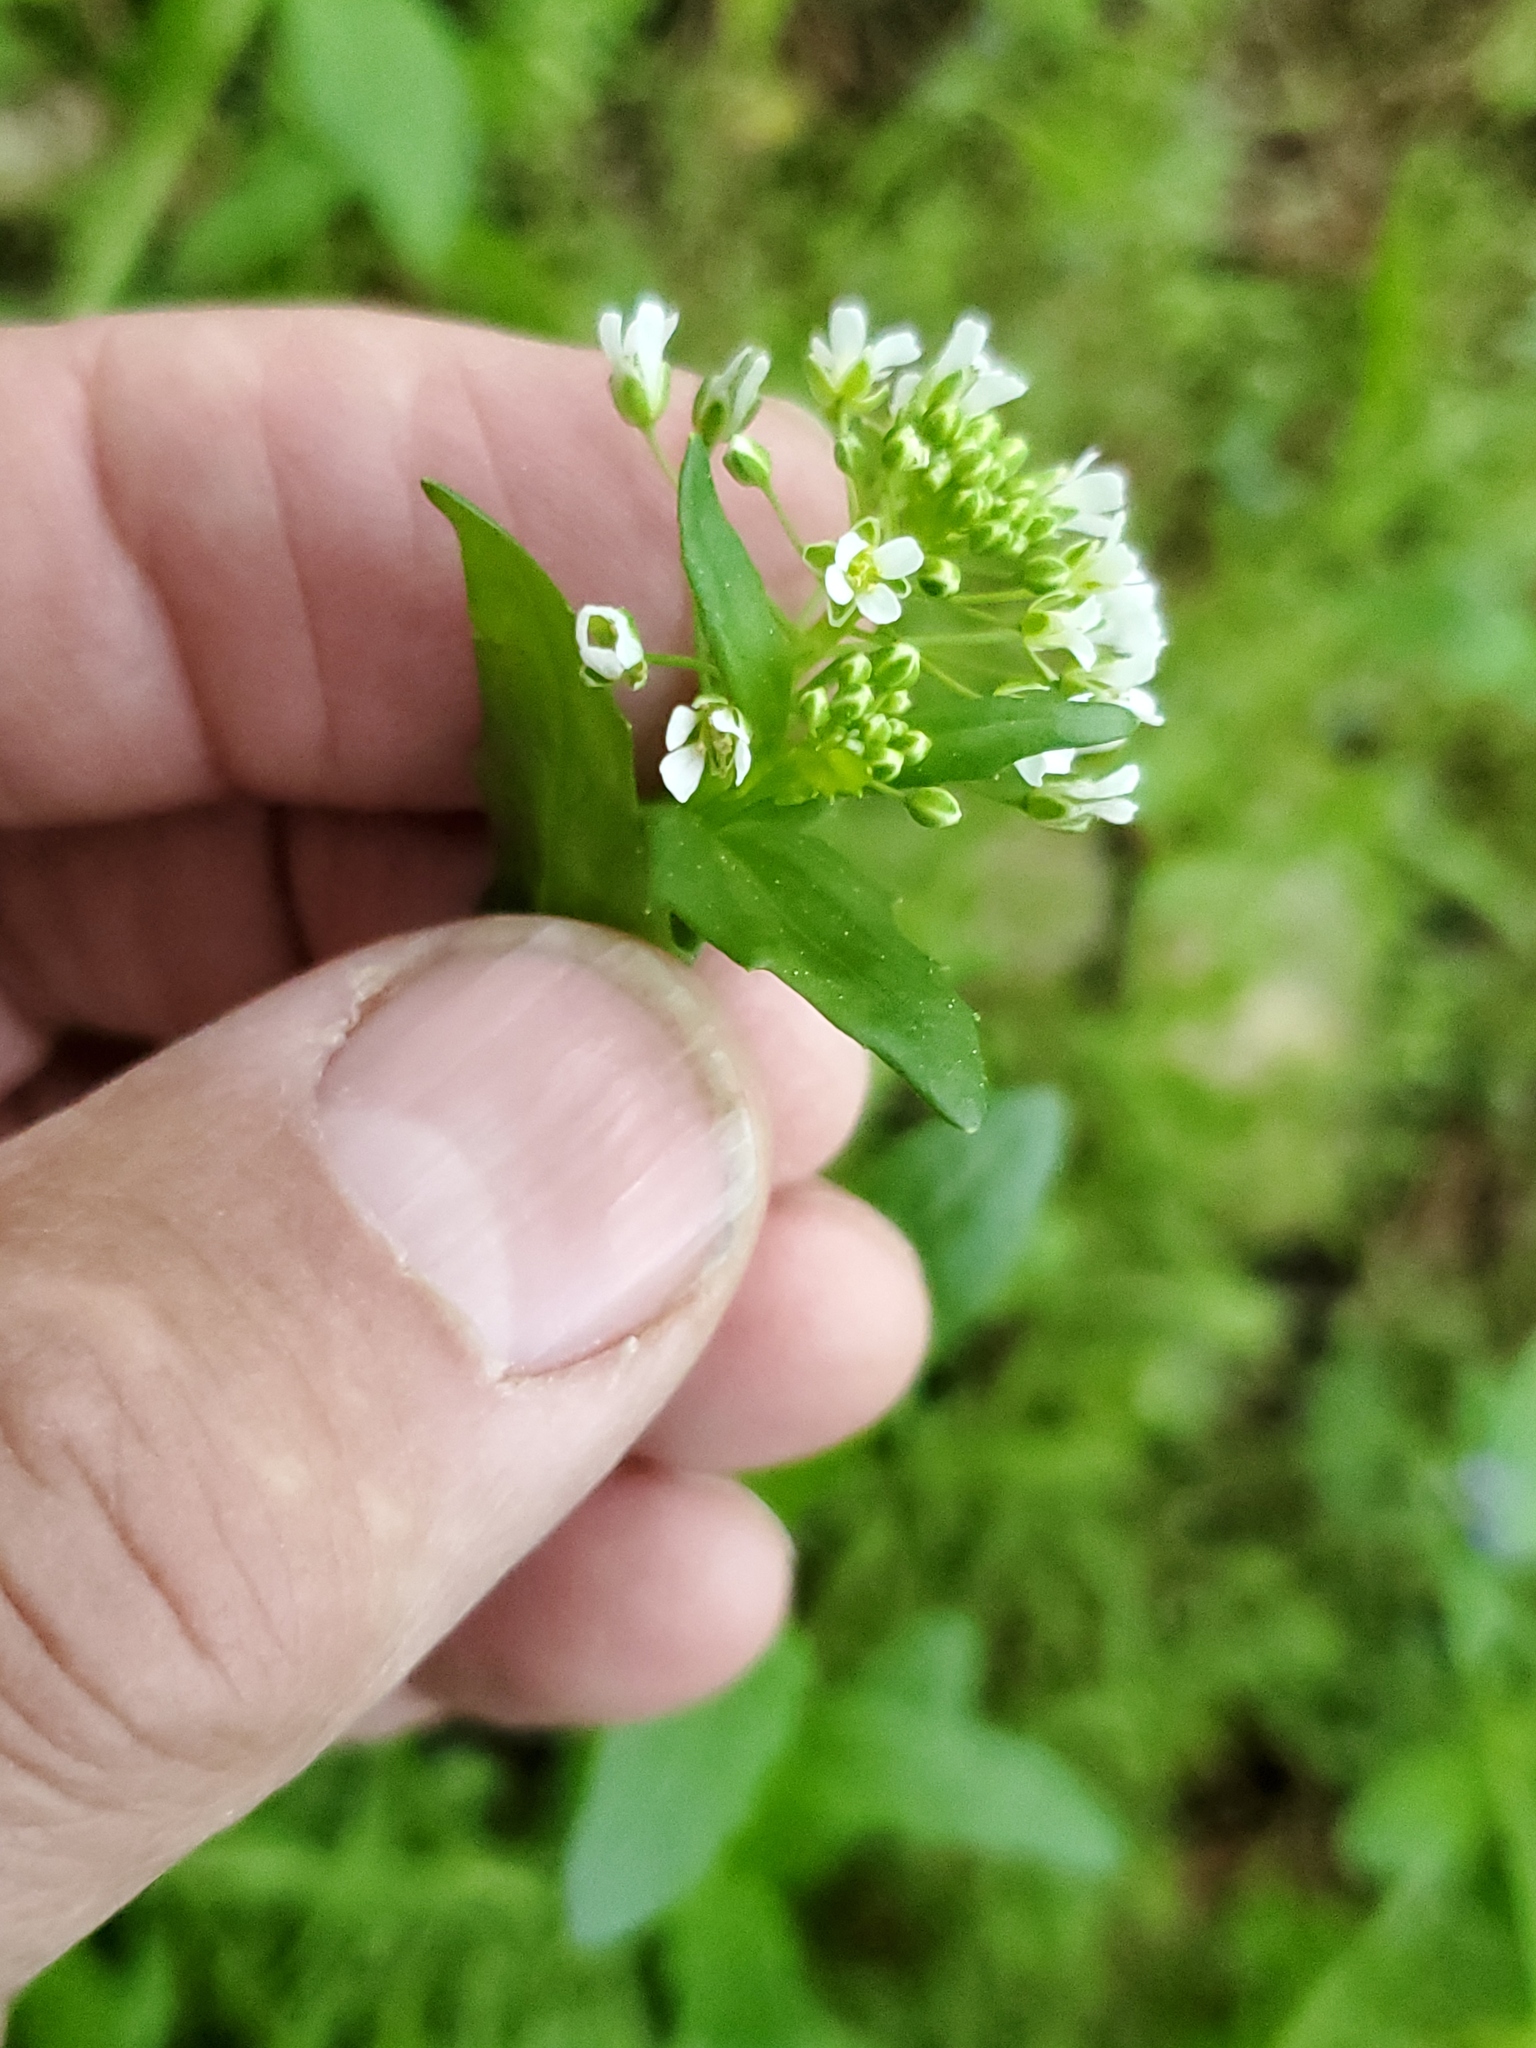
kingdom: Plantae
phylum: Tracheophyta
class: Magnoliopsida
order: Brassicales
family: Brassicaceae
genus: Thlaspi
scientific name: Thlaspi arvense
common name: Field pennycress
